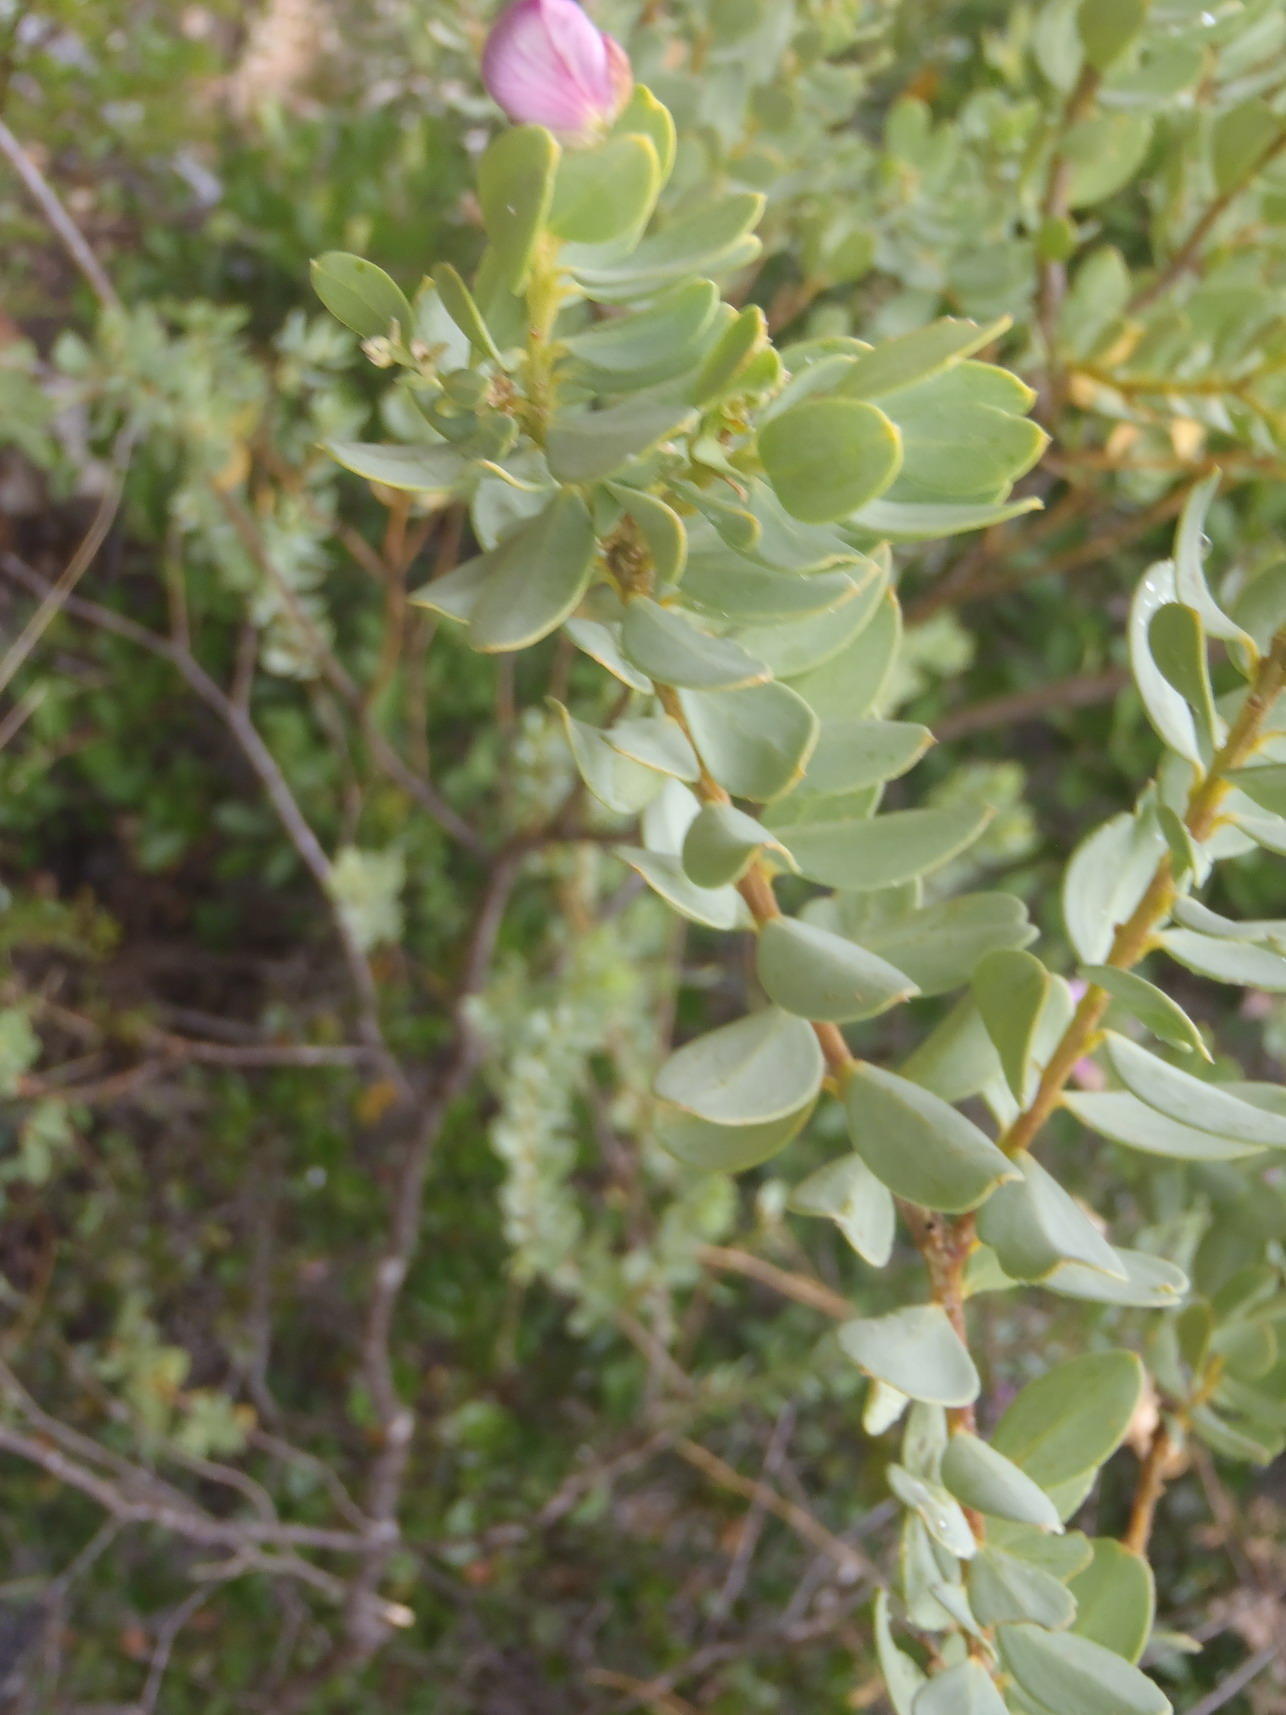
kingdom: Plantae
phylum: Tracheophyta
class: Magnoliopsida
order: Fabales
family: Polygalaceae
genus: Polygala
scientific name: Polygala myrtifolia
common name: Myrtle-leaf milkwort
